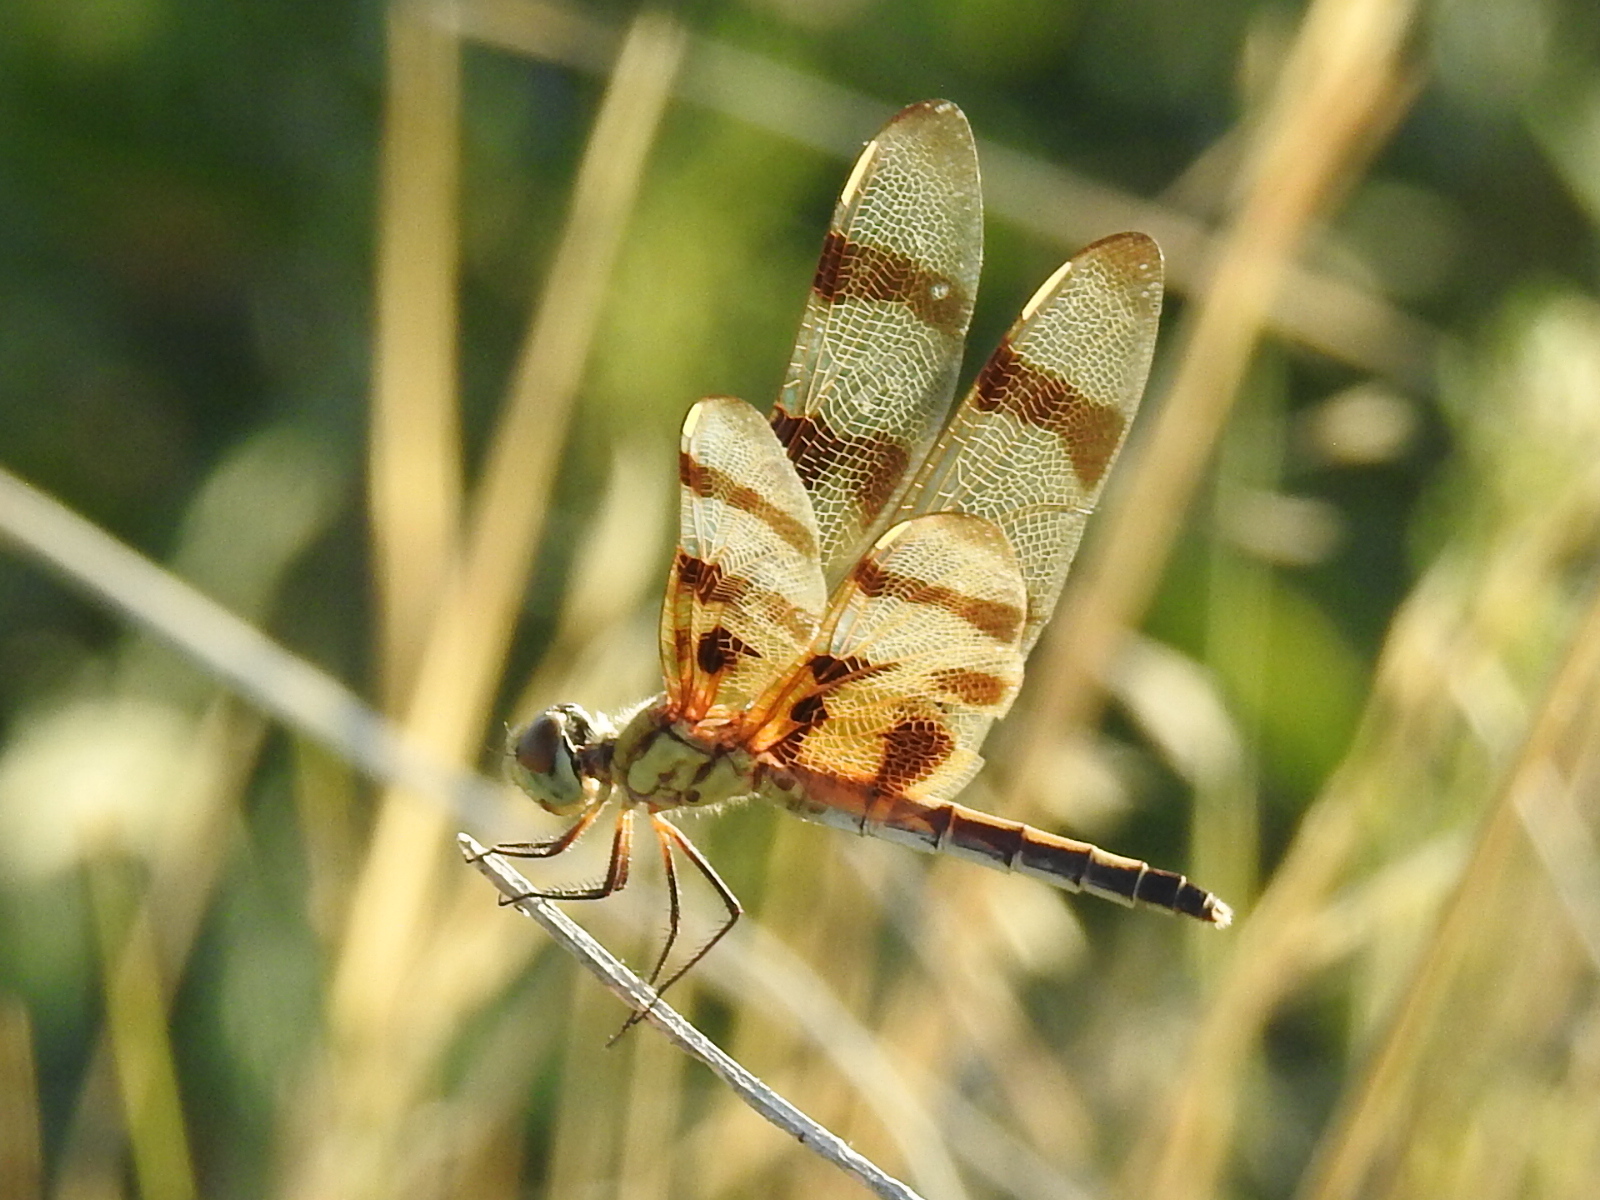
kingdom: Animalia
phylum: Arthropoda
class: Insecta
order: Odonata
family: Libellulidae
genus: Celithemis
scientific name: Celithemis eponina
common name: Halloween pennant
